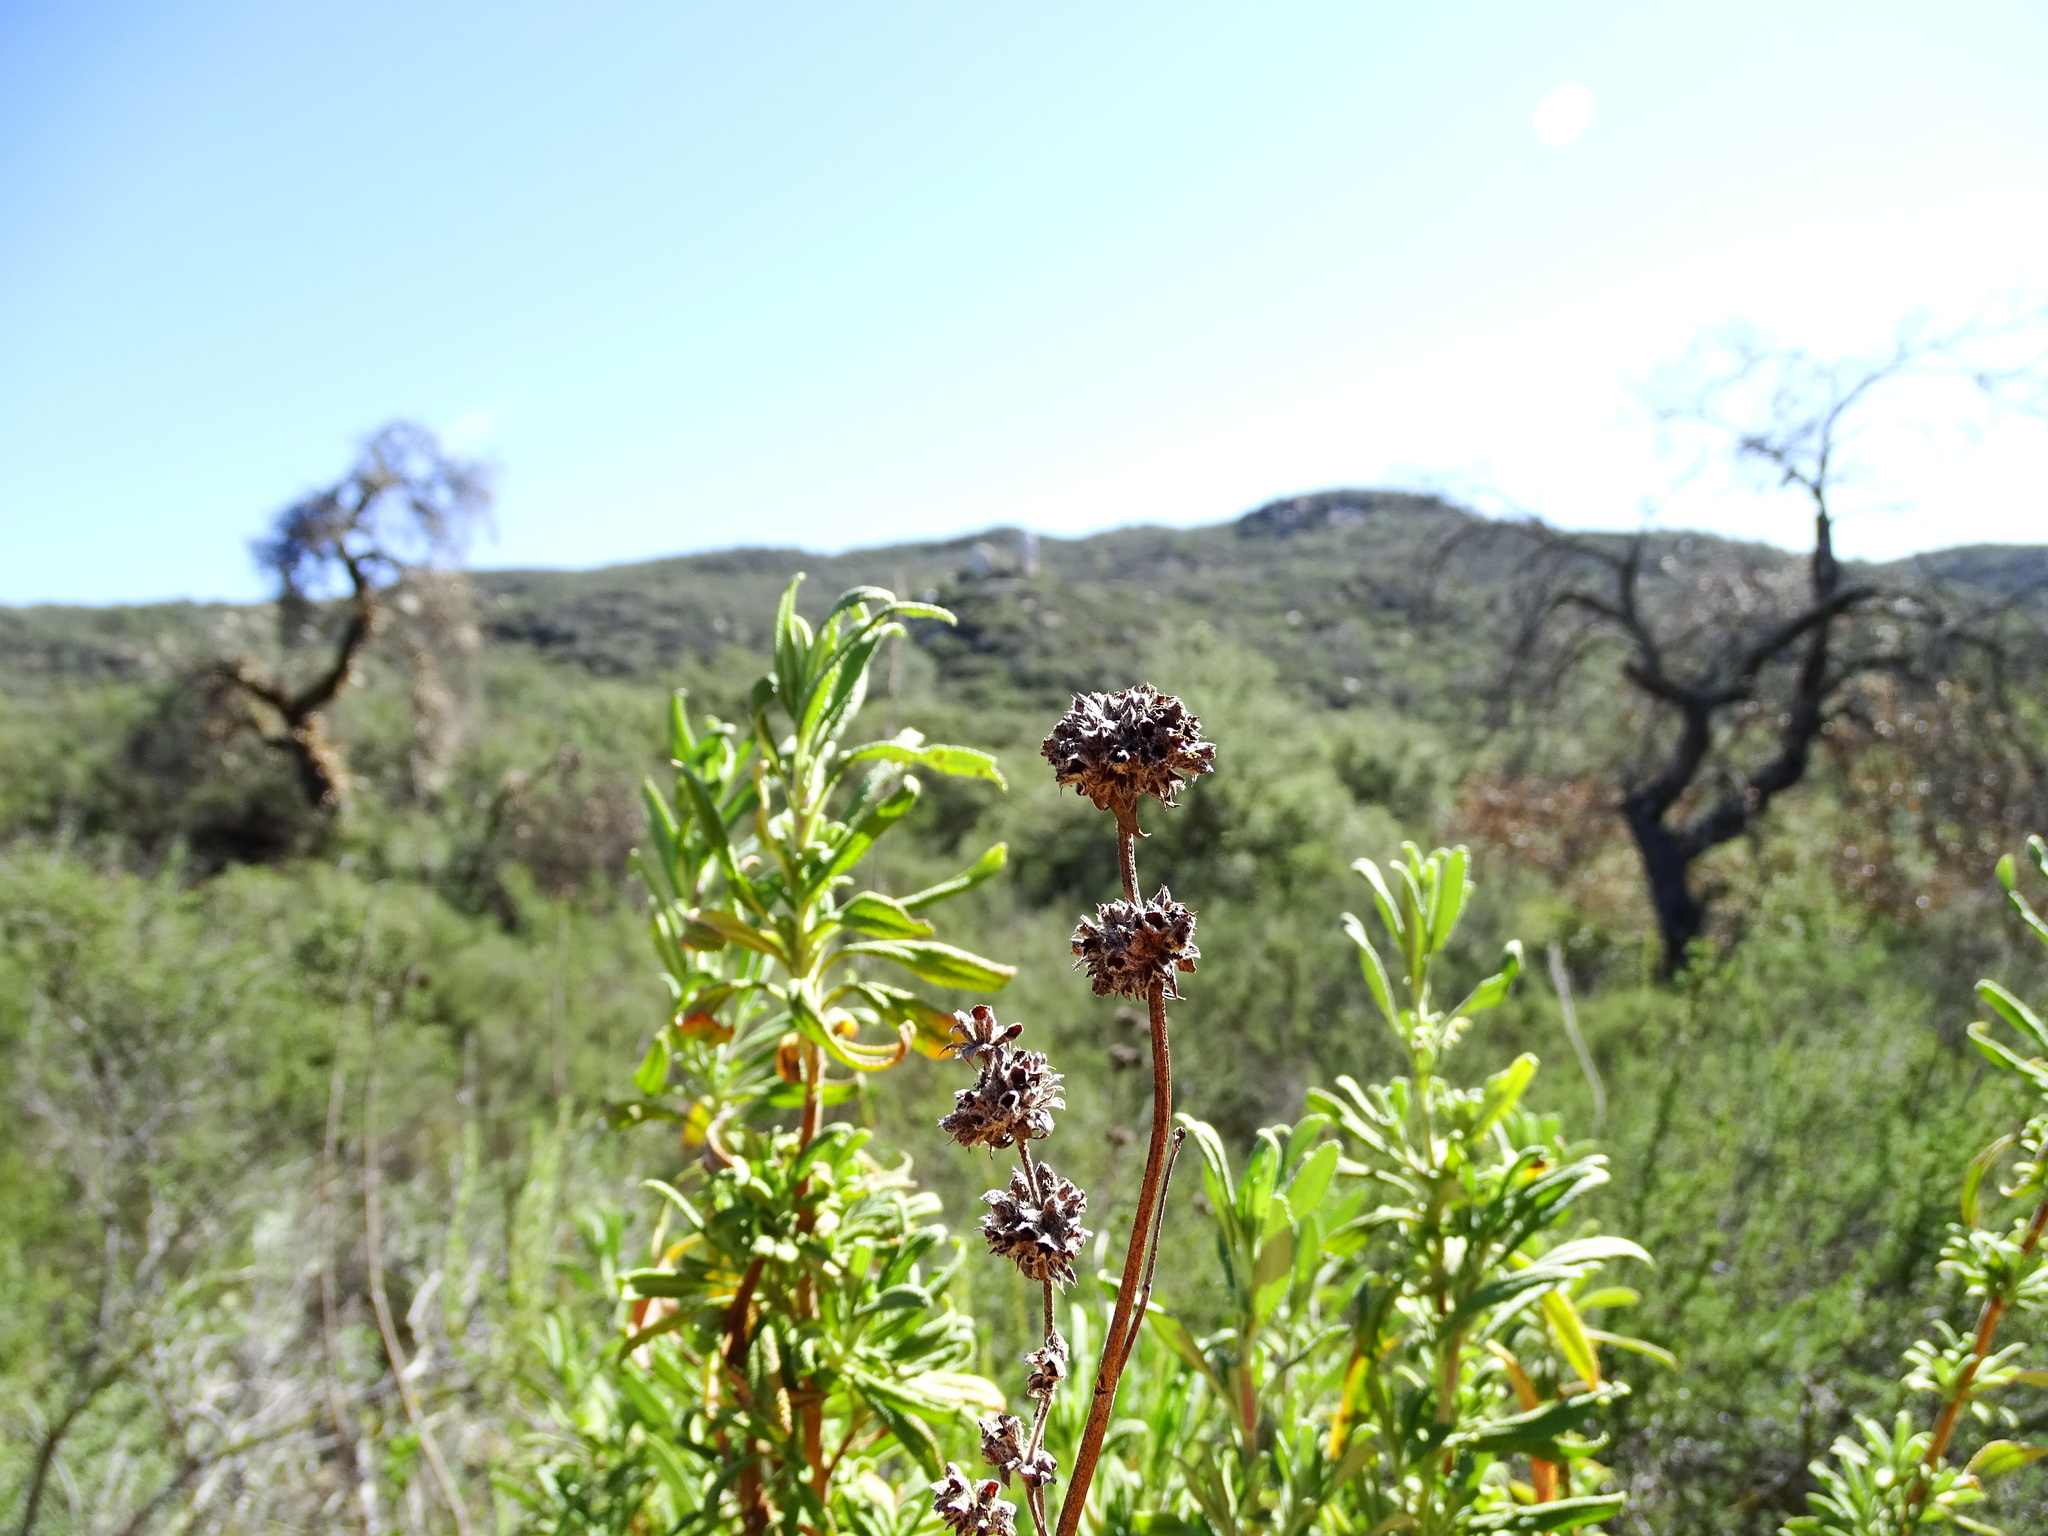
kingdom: Plantae
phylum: Tracheophyta
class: Magnoliopsida
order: Lamiales
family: Lamiaceae
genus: Salvia
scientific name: Salvia mellifera
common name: Black sage
